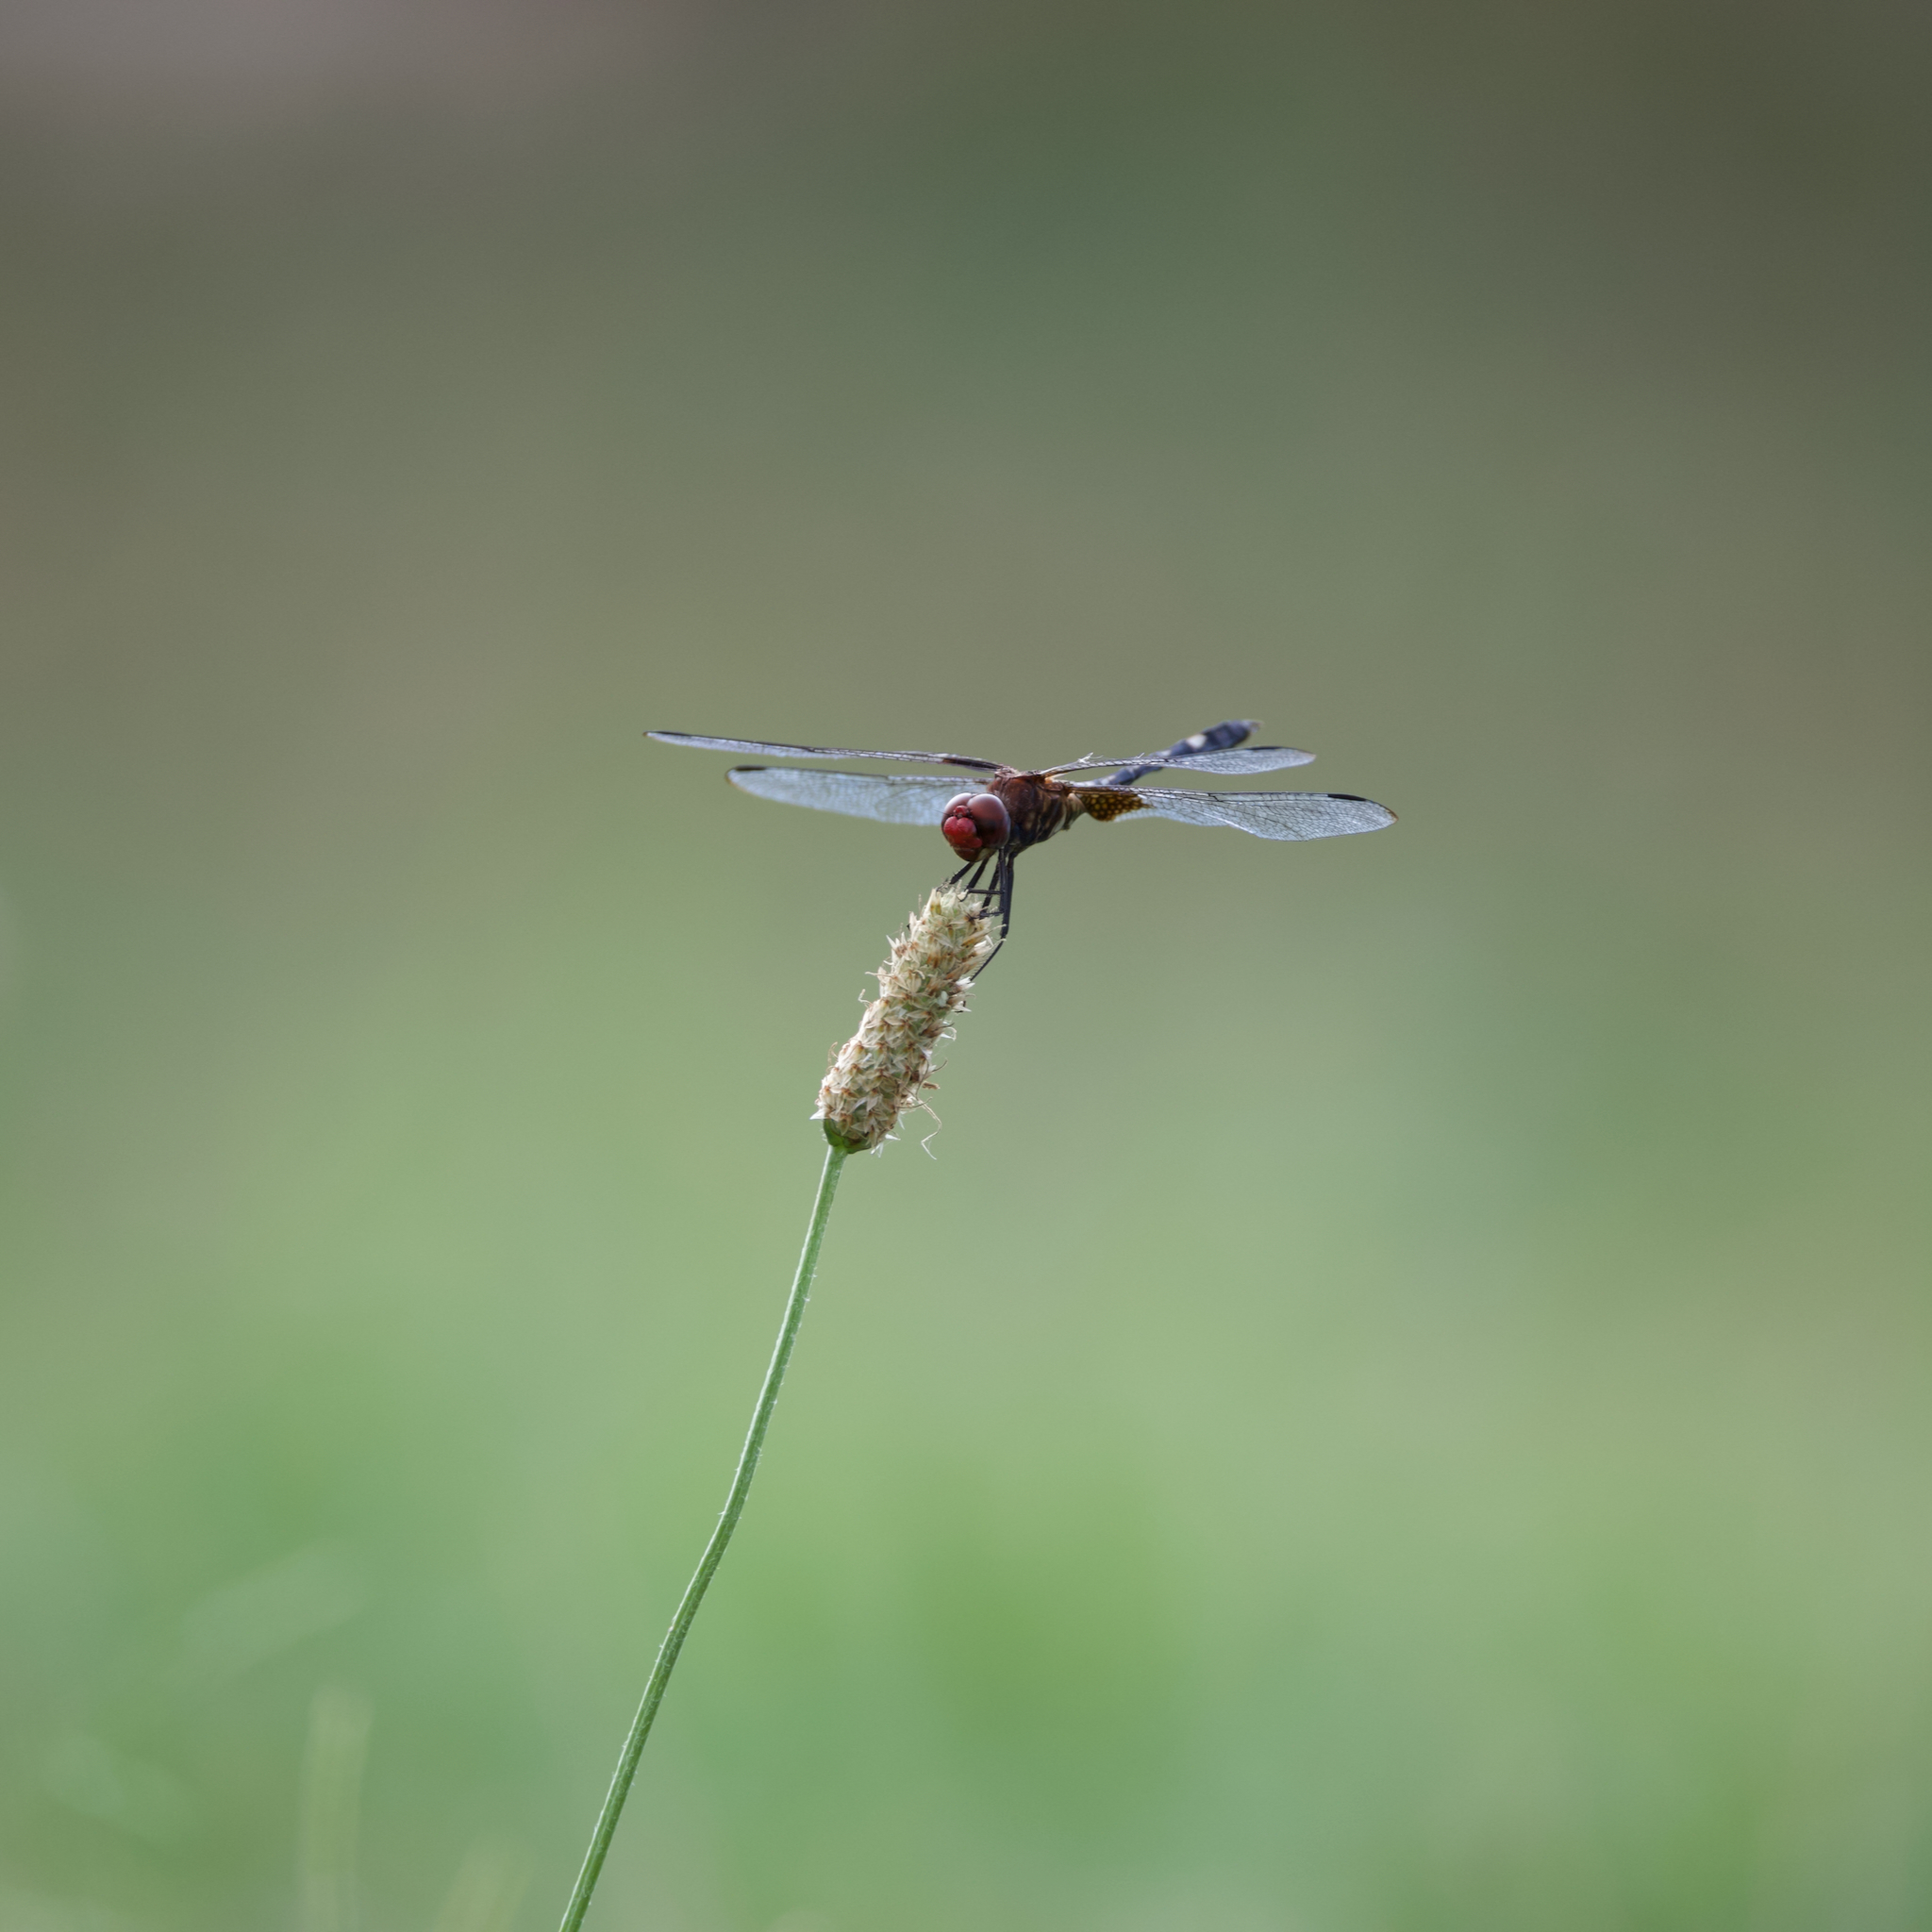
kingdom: Animalia
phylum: Arthropoda
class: Insecta
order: Odonata
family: Libellulidae
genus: Dythemis
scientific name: Dythemis fugax
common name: Checkered setwing
